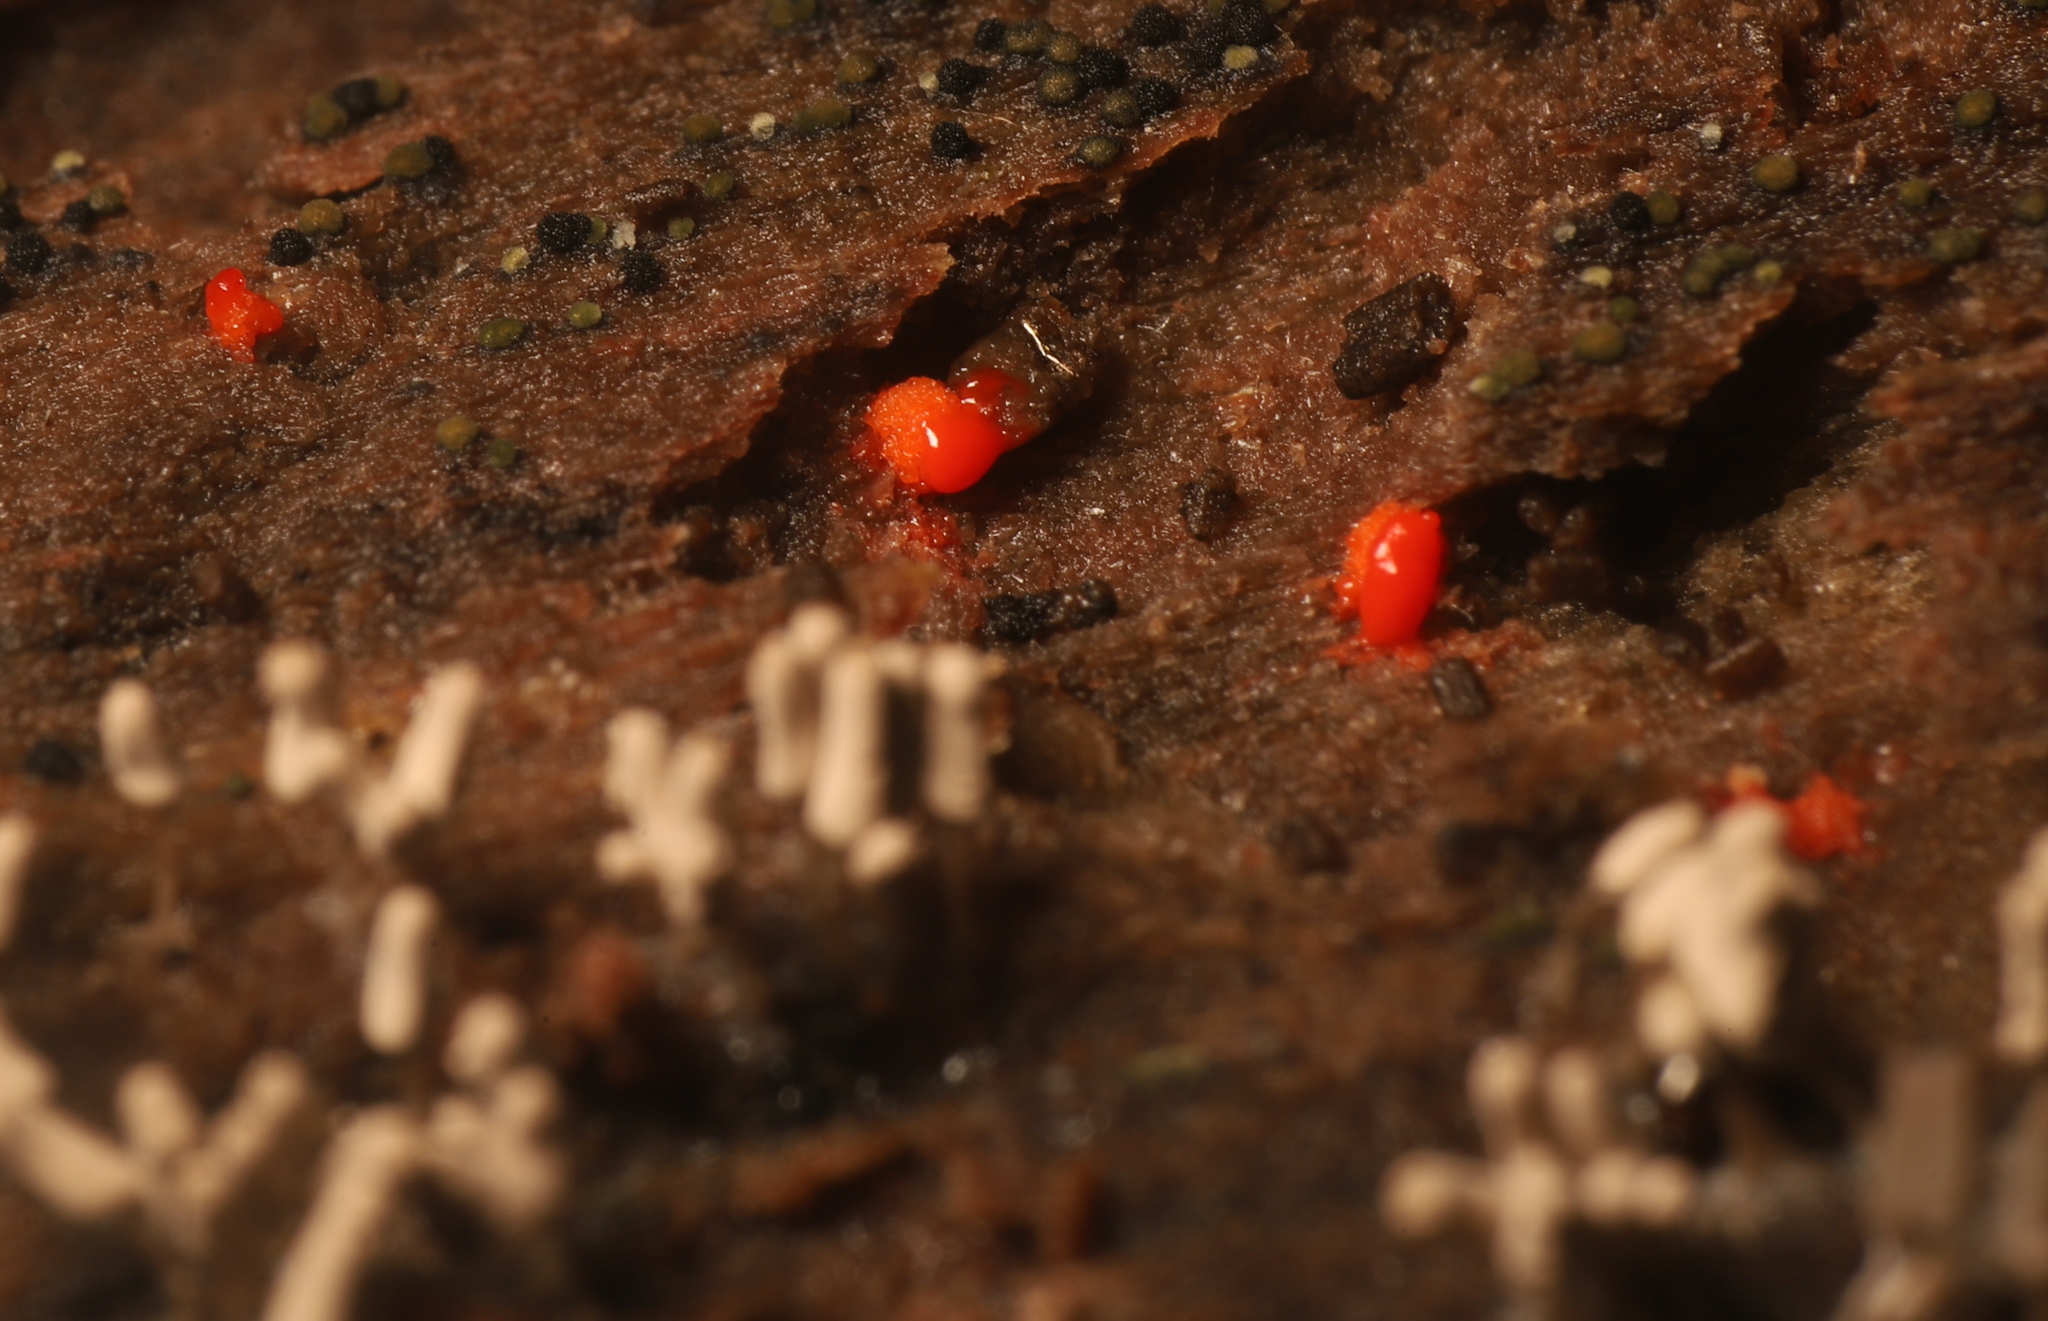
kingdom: Protozoa
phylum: Mycetozoa
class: Myxomycetes
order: Trichiales
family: Arcyriaceae
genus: Arcyria
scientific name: Arcyria cinerea
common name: White carnival candy slime mold
